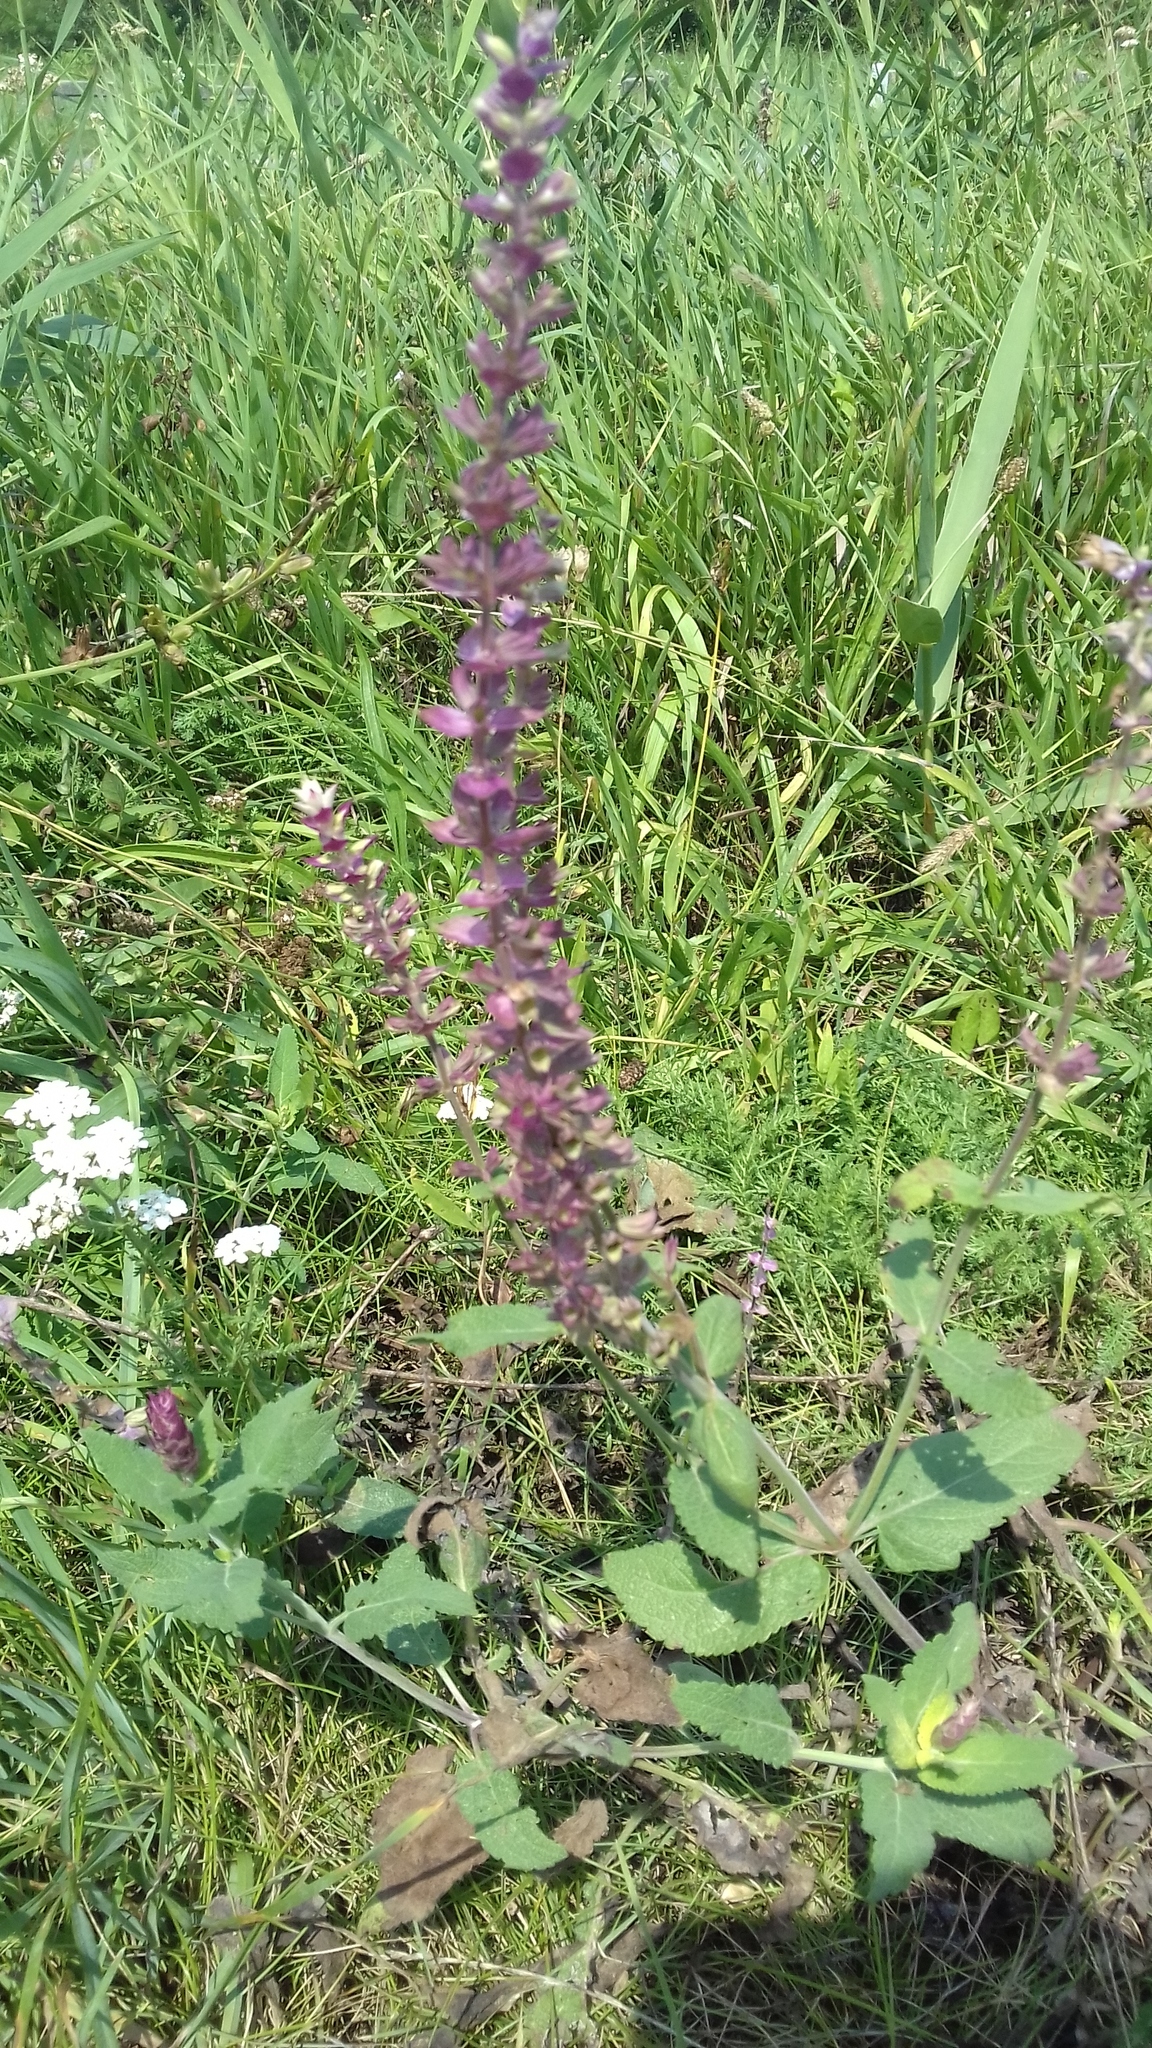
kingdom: Plantae
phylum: Tracheophyta
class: Magnoliopsida
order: Lamiales
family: Lamiaceae
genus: Salvia
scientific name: Salvia nemorosa
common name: Balkan clary
